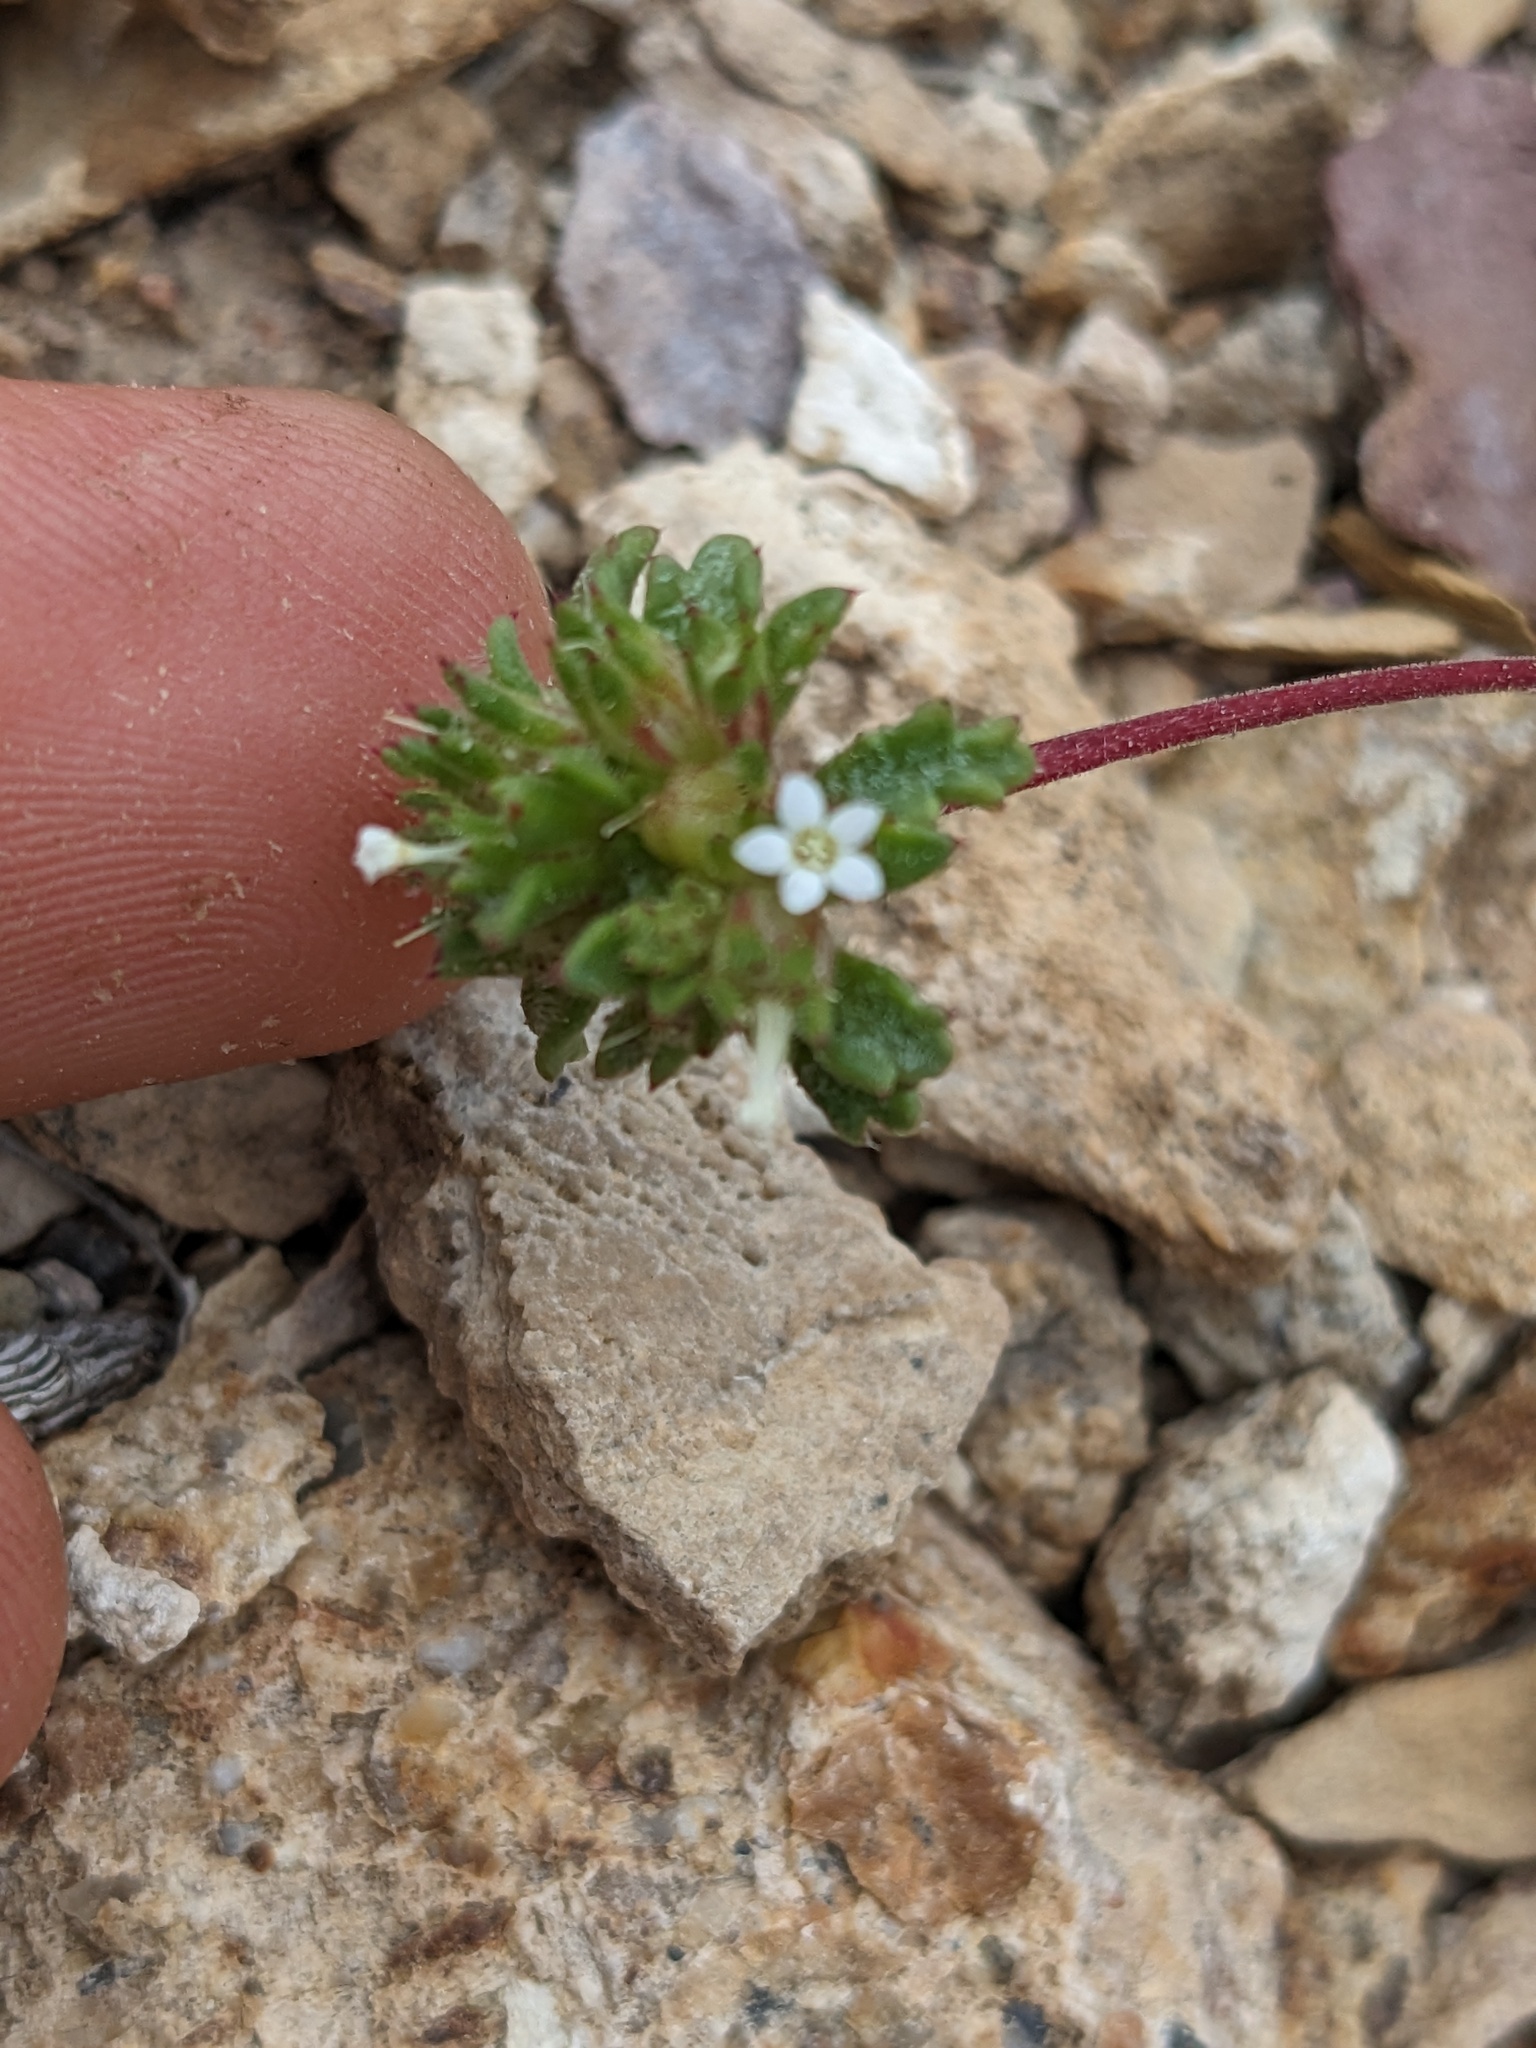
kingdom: Plantae
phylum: Tracheophyta
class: Magnoliopsida
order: Ericales
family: Polemoniaceae
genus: Ipomopsis
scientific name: Ipomopsis polycladon
